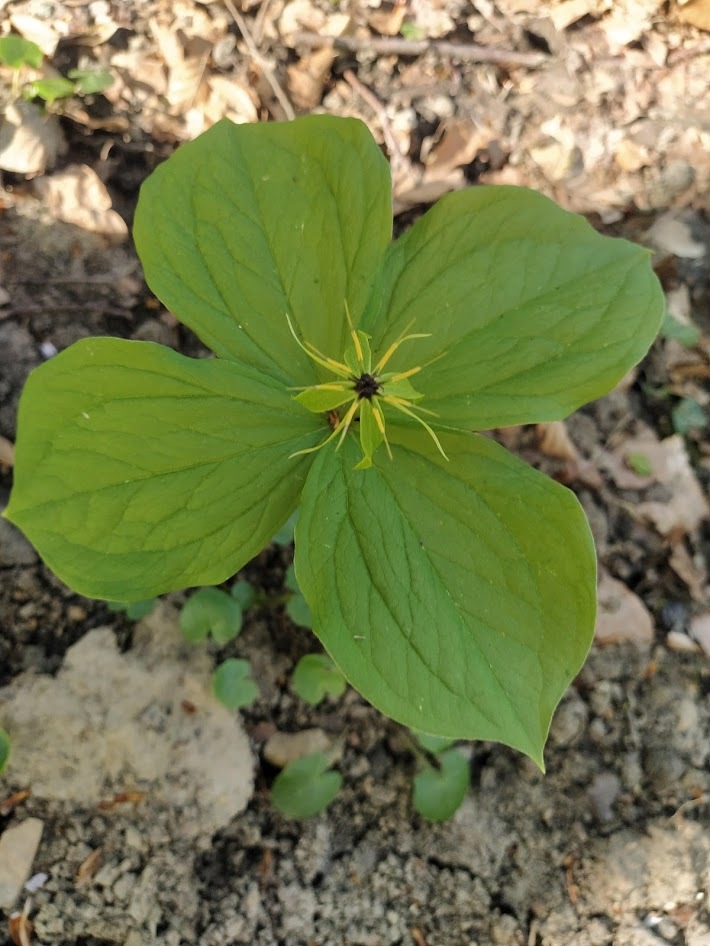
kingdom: Plantae
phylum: Tracheophyta
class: Liliopsida
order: Liliales
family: Melanthiaceae
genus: Paris
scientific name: Paris quadrifolia
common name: Herb-paris
